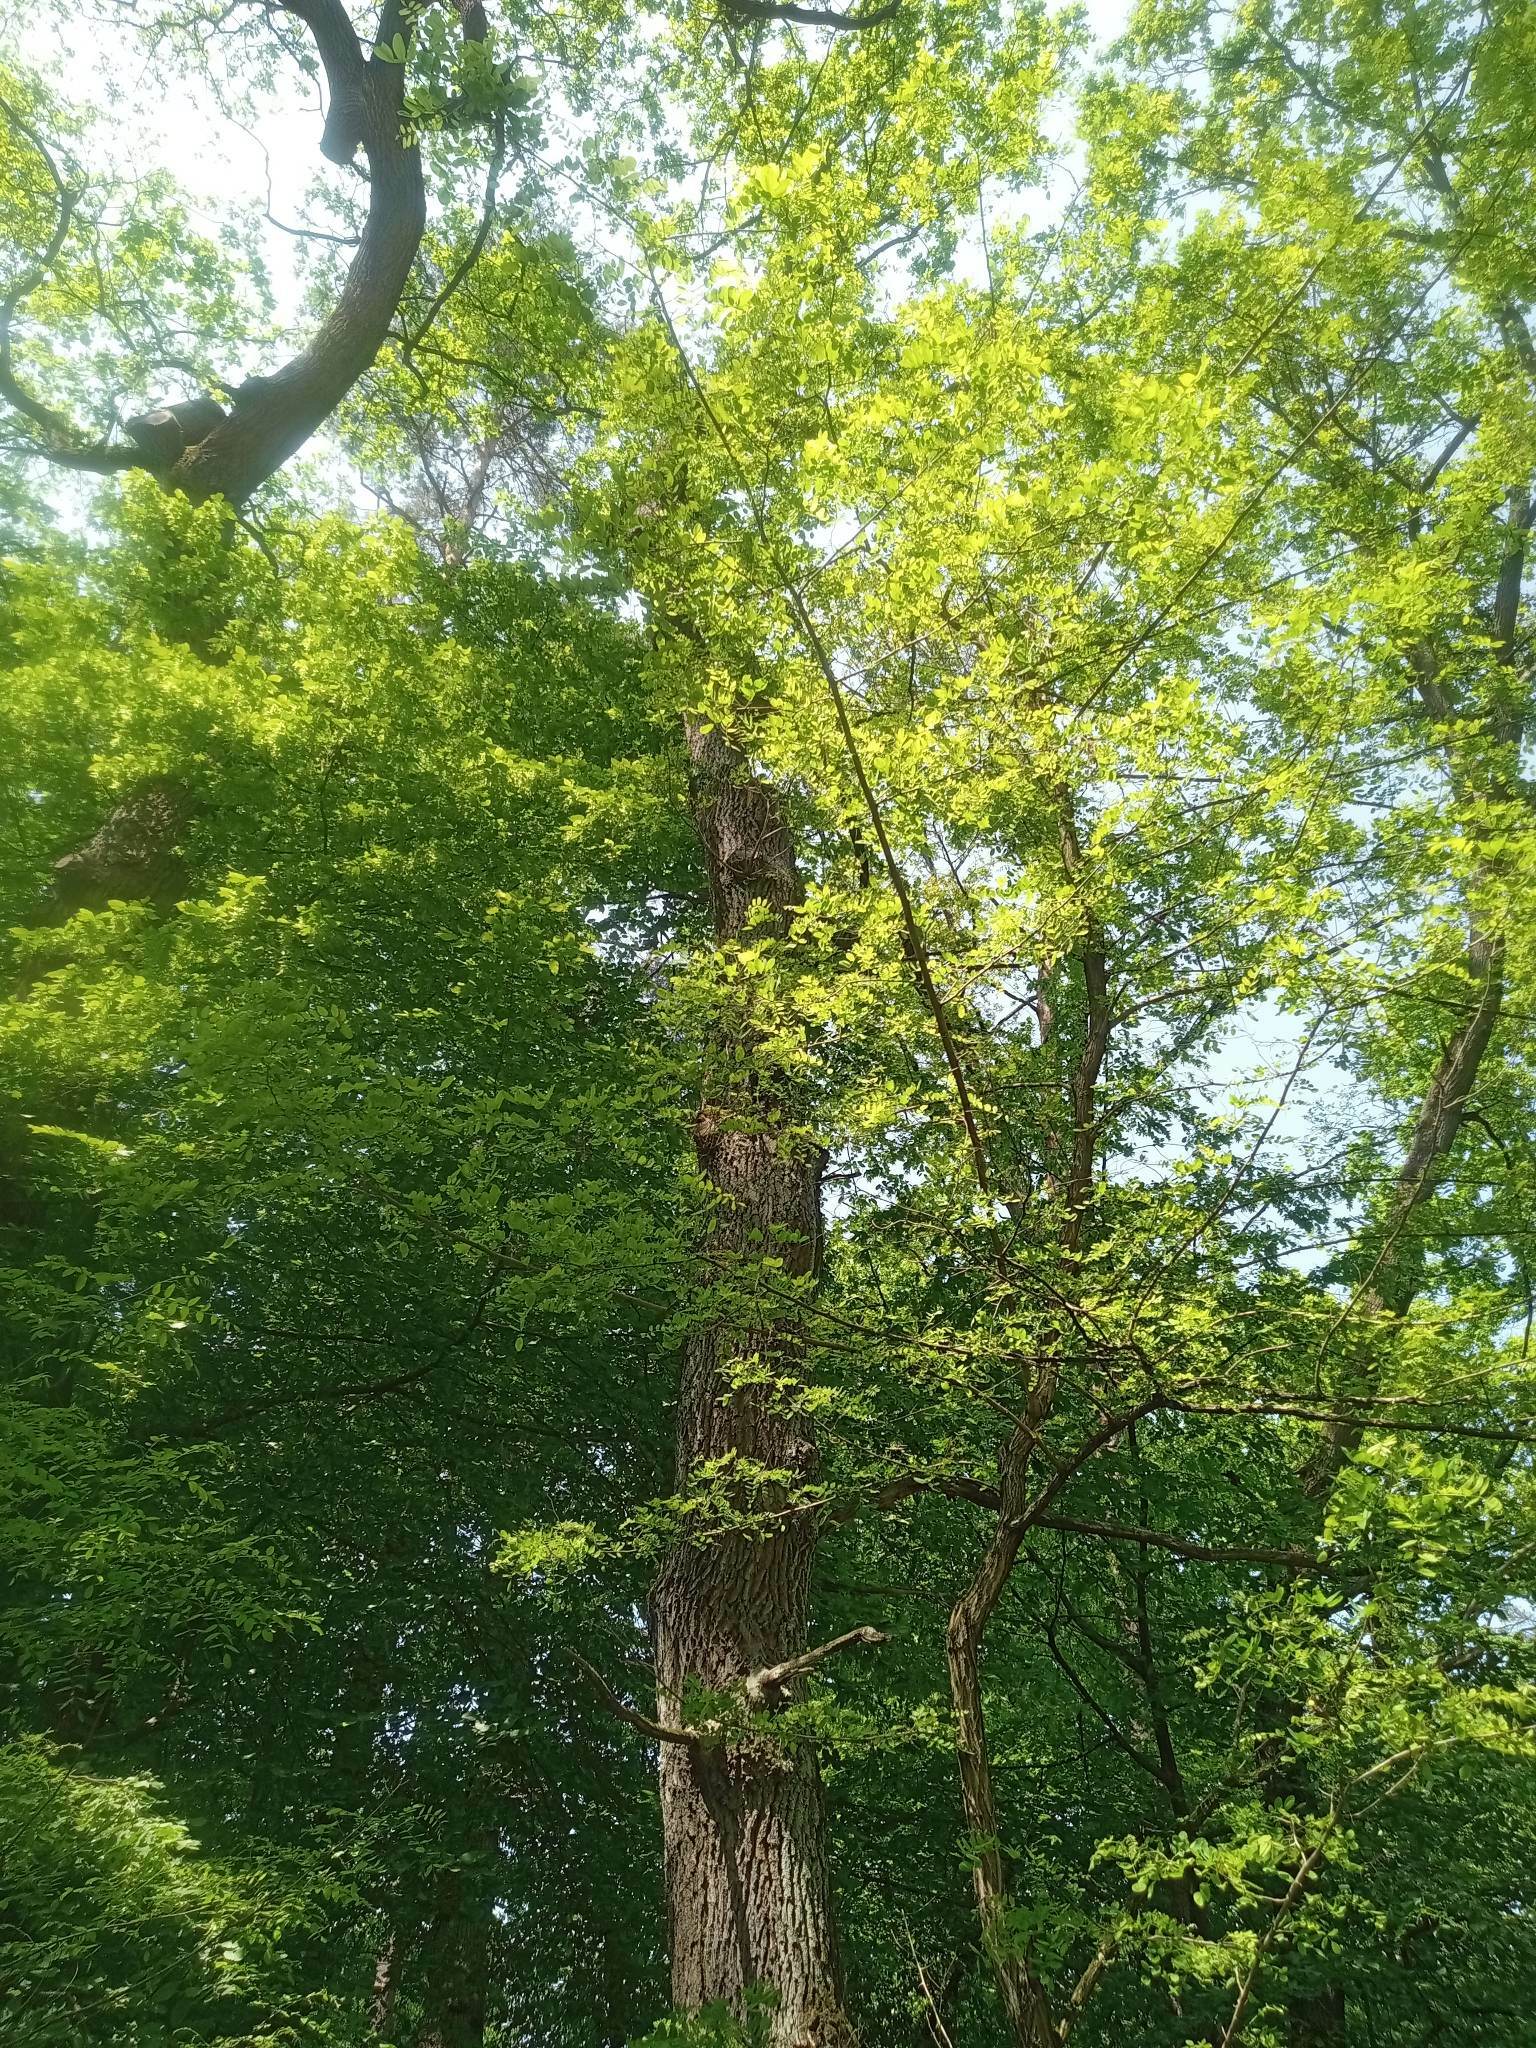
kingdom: Plantae
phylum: Tracheophyta
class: Magnoliopsida
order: Fabales
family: Fabaceae
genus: Robinia
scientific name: Robinia pseudoacacia
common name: Black locust
